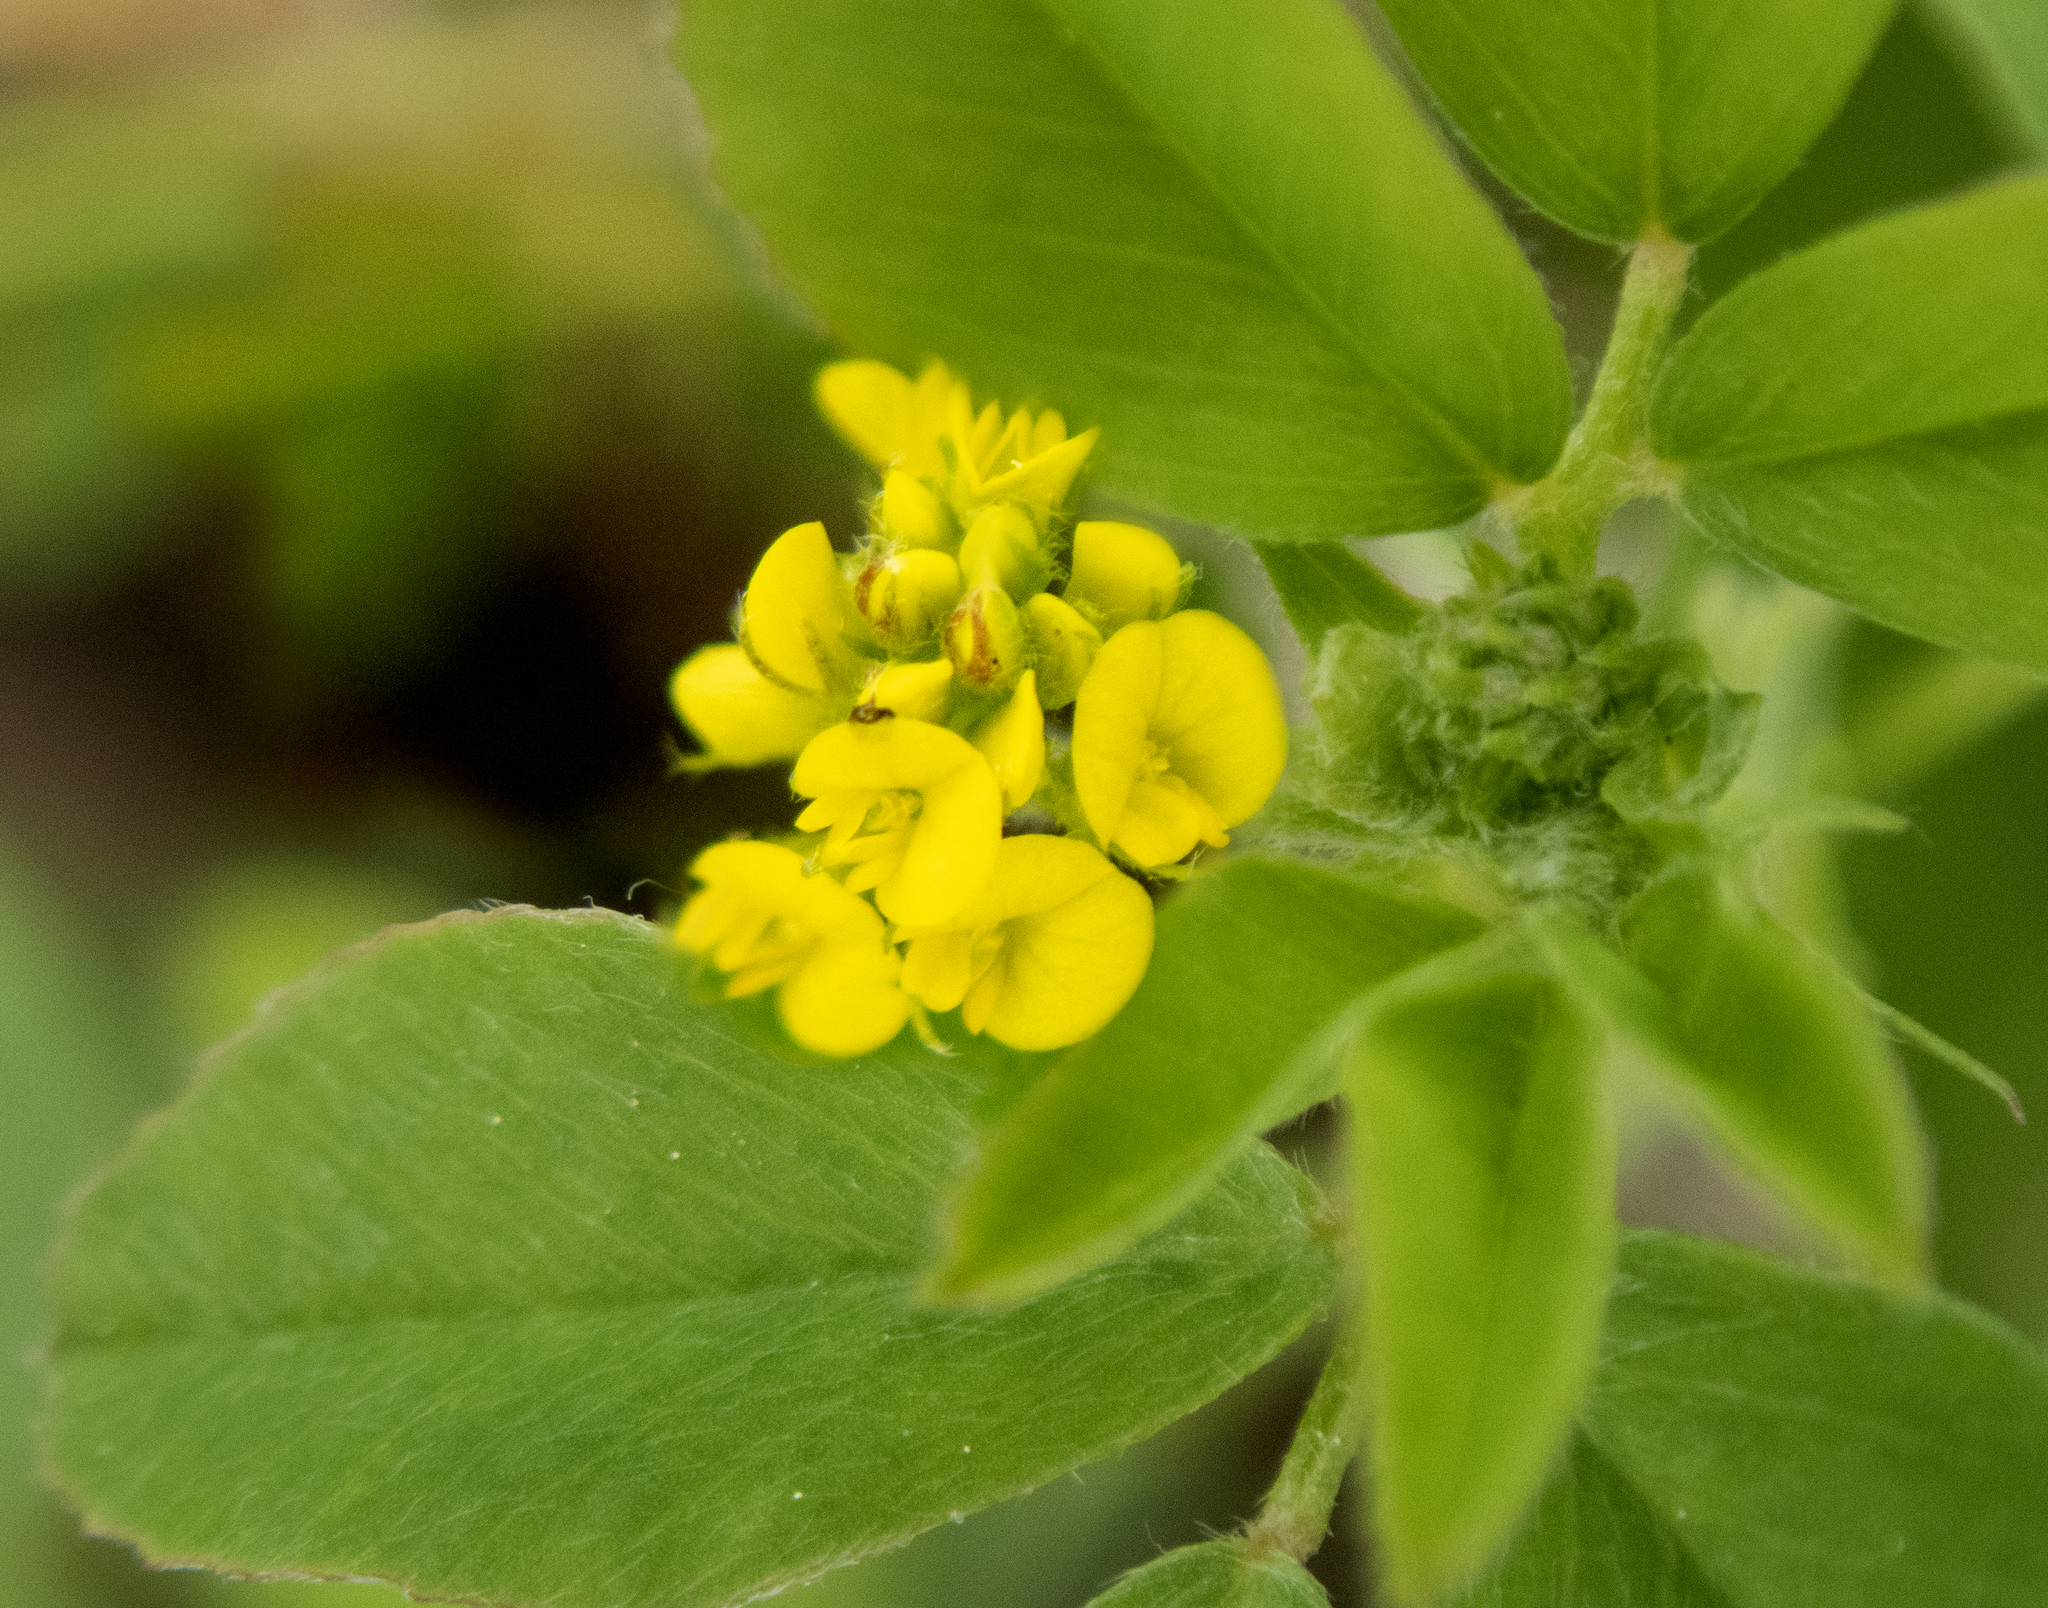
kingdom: Plantae
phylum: Tracheophyta
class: Magnoliopsida
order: Fabales
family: Fabaceae
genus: Medicago
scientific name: Medicago lupulina
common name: Black medick
